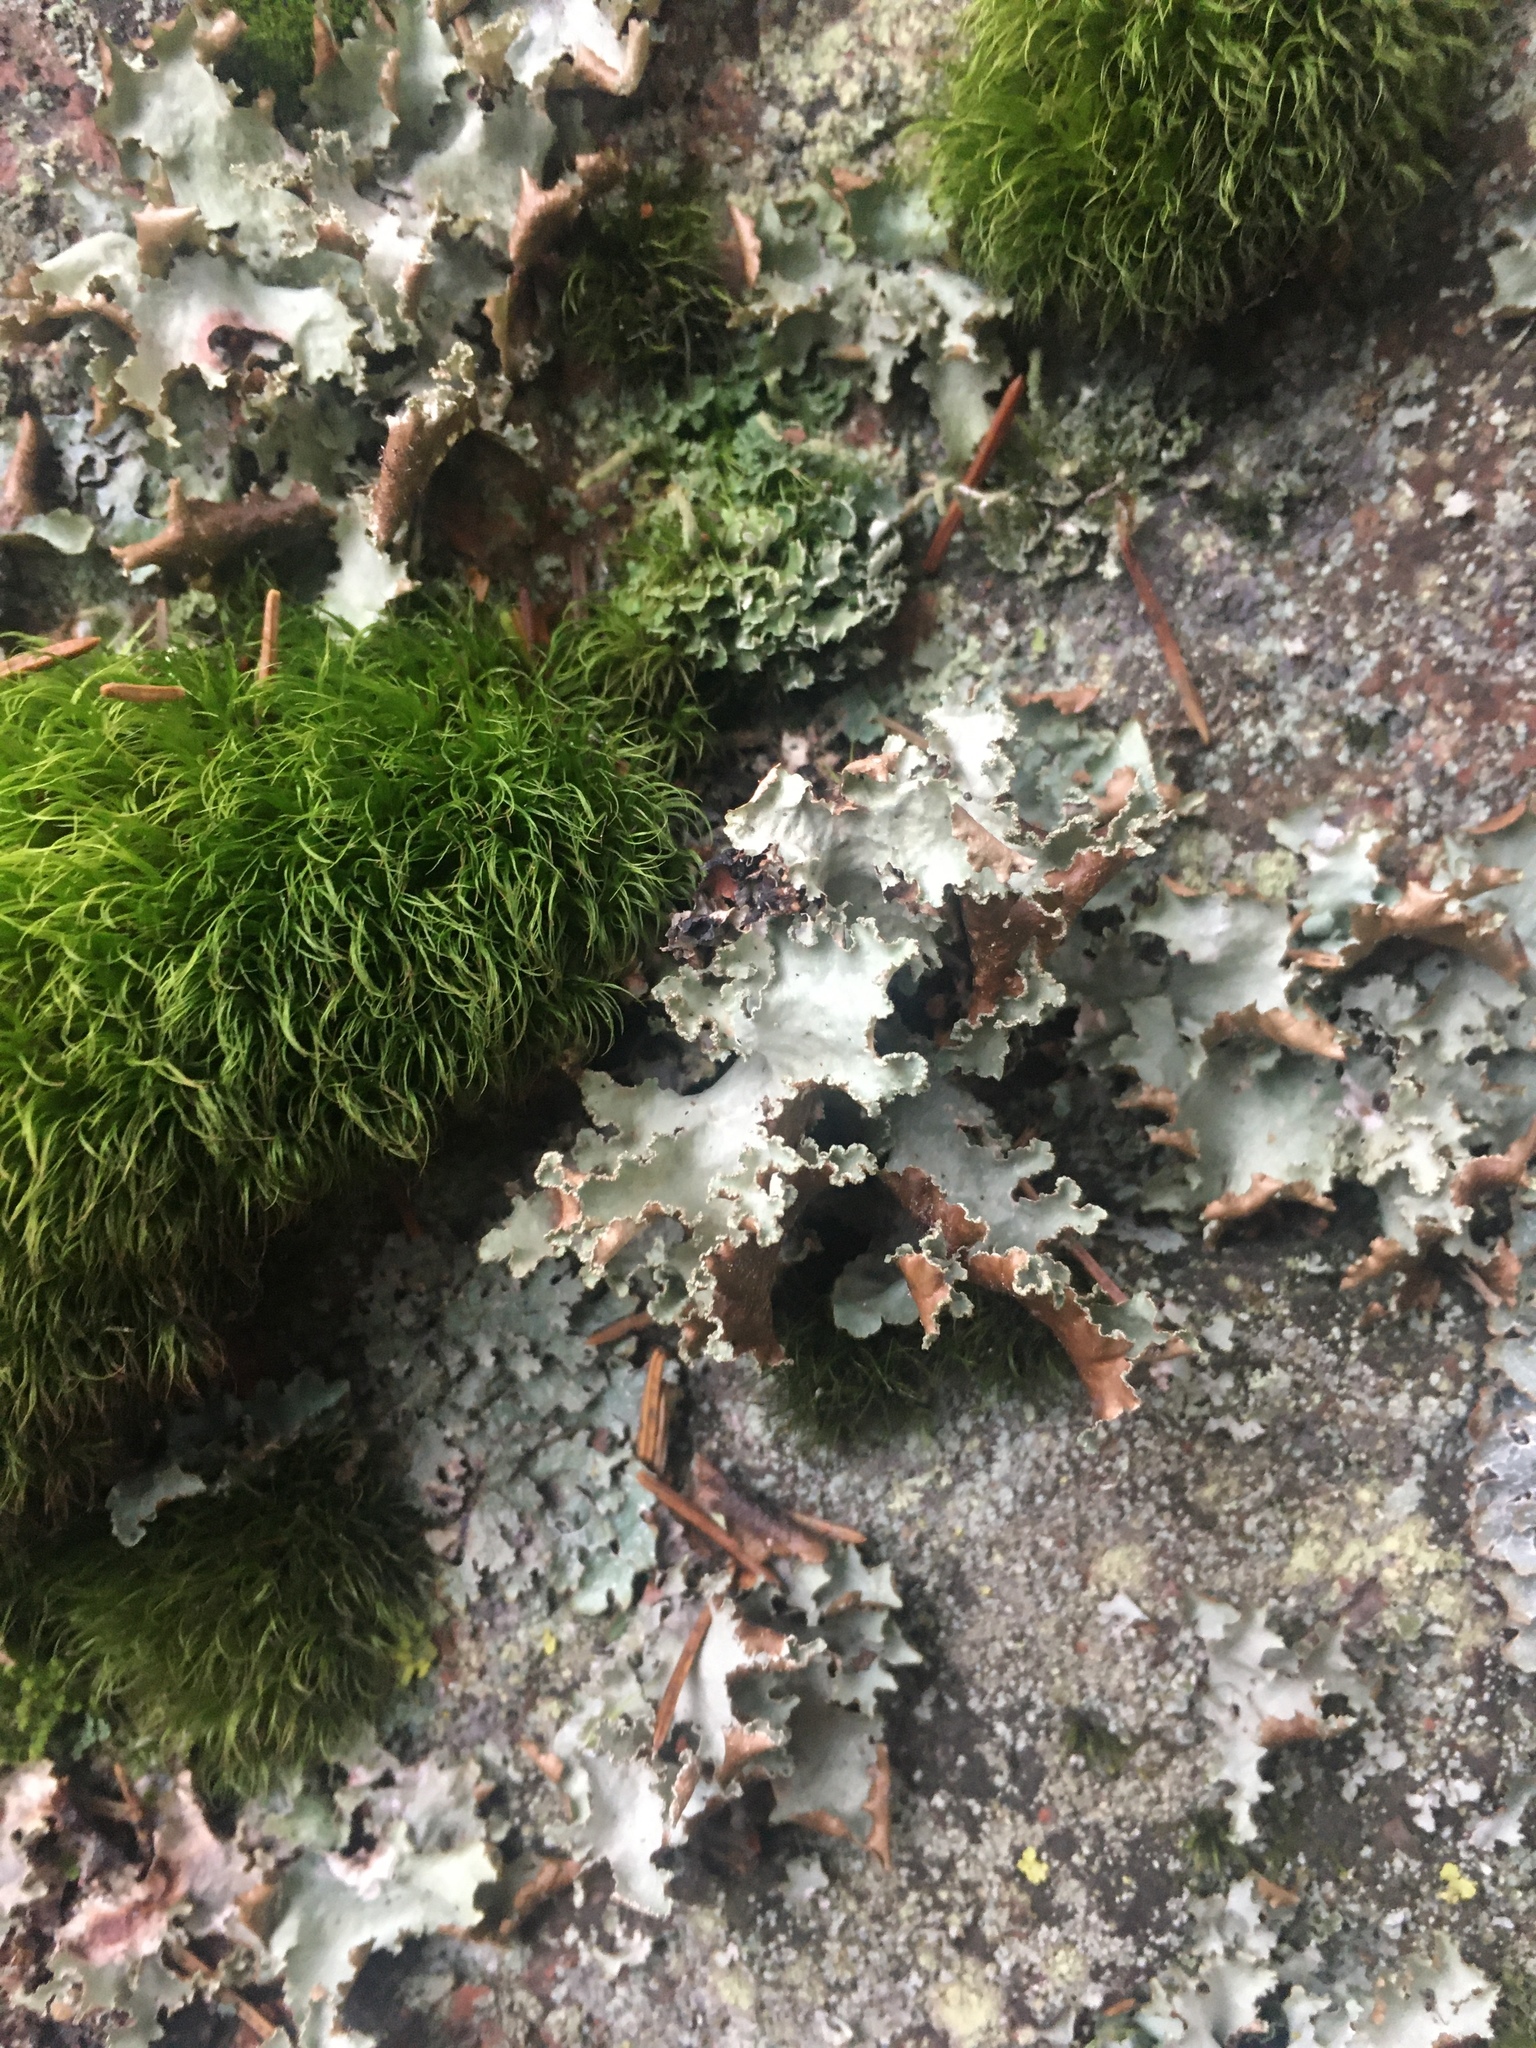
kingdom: Fungi
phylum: Ascomycota
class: Lecanoromycetes
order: Lecanorales
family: Parmeliaceae
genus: Platismatia
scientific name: Platismatia glauca
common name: Varied rag lichen
